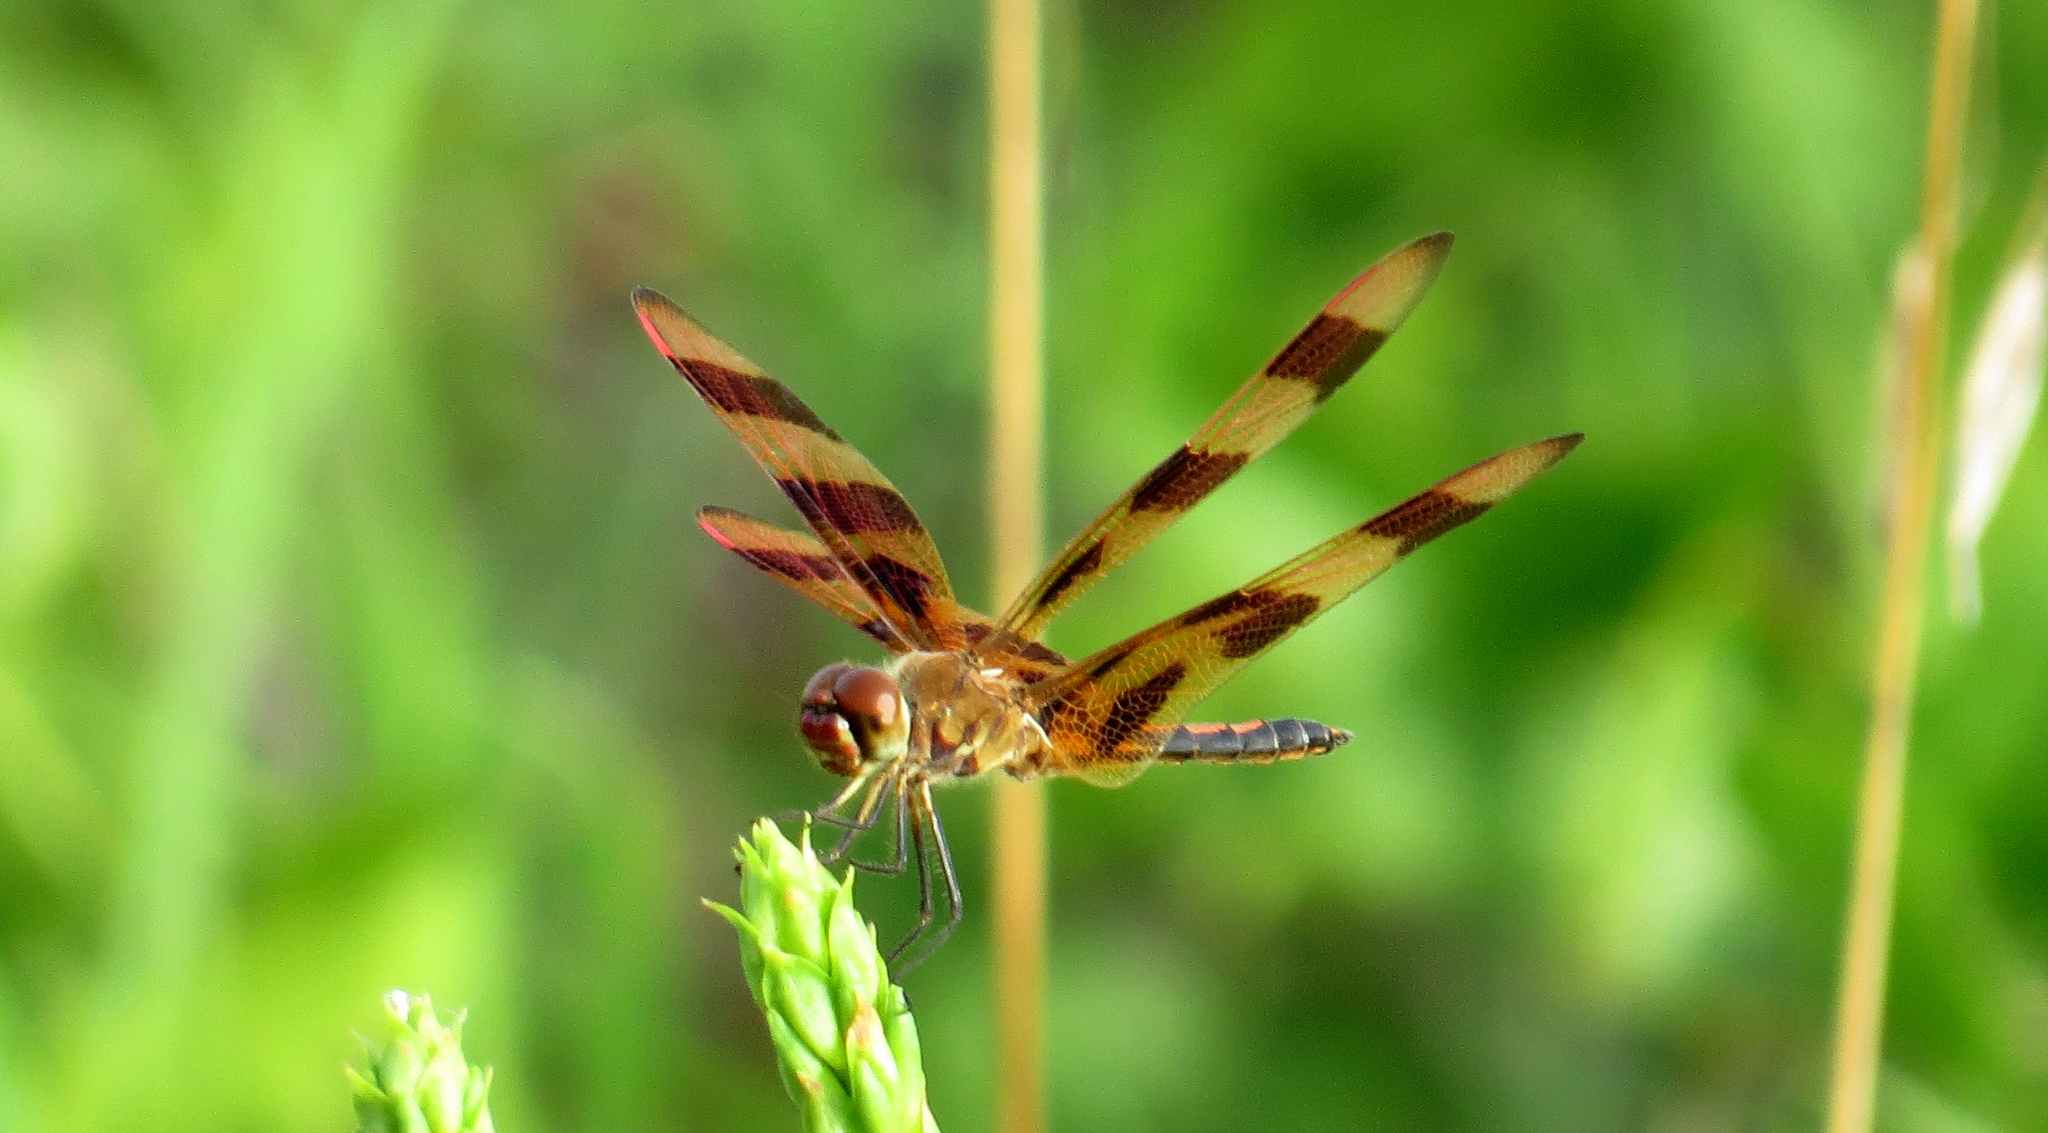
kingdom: Animalia
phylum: Arthropoda
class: Insecta
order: Odonata
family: Libellulidae
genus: Celithemis
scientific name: Celithemis eponina
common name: Halloween pennant
